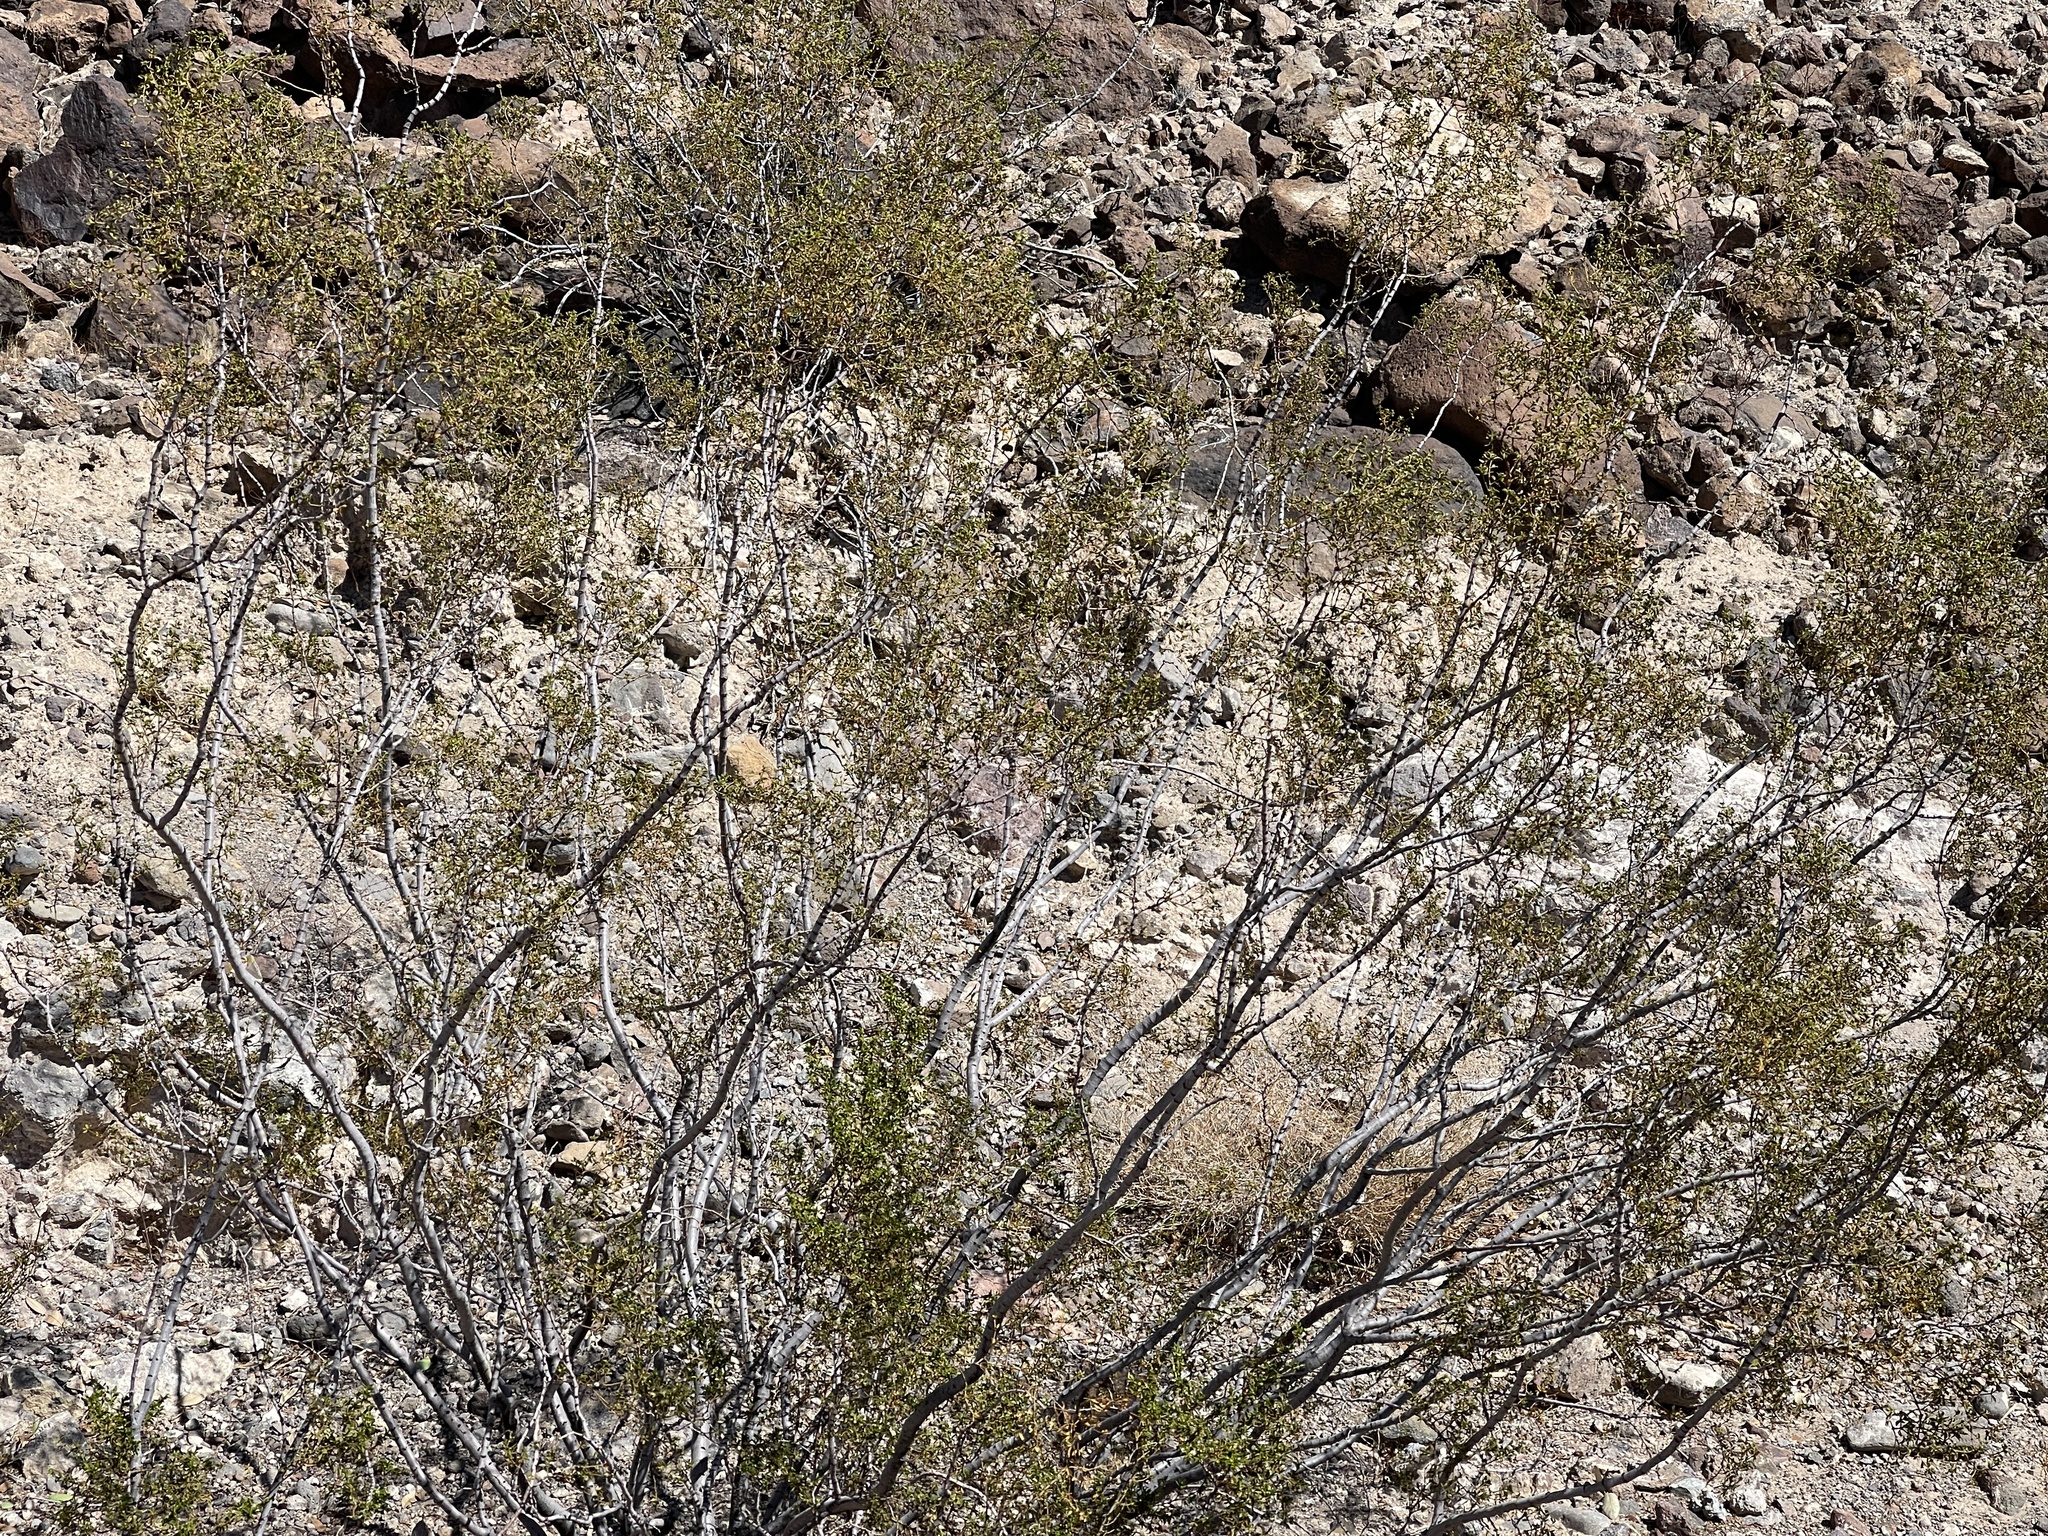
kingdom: Plantae
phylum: Tracheophyta
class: Magnoliopsida
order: Zygophyllales
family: Zygophyllaceae
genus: Larrea
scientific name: Larrea tridentata
